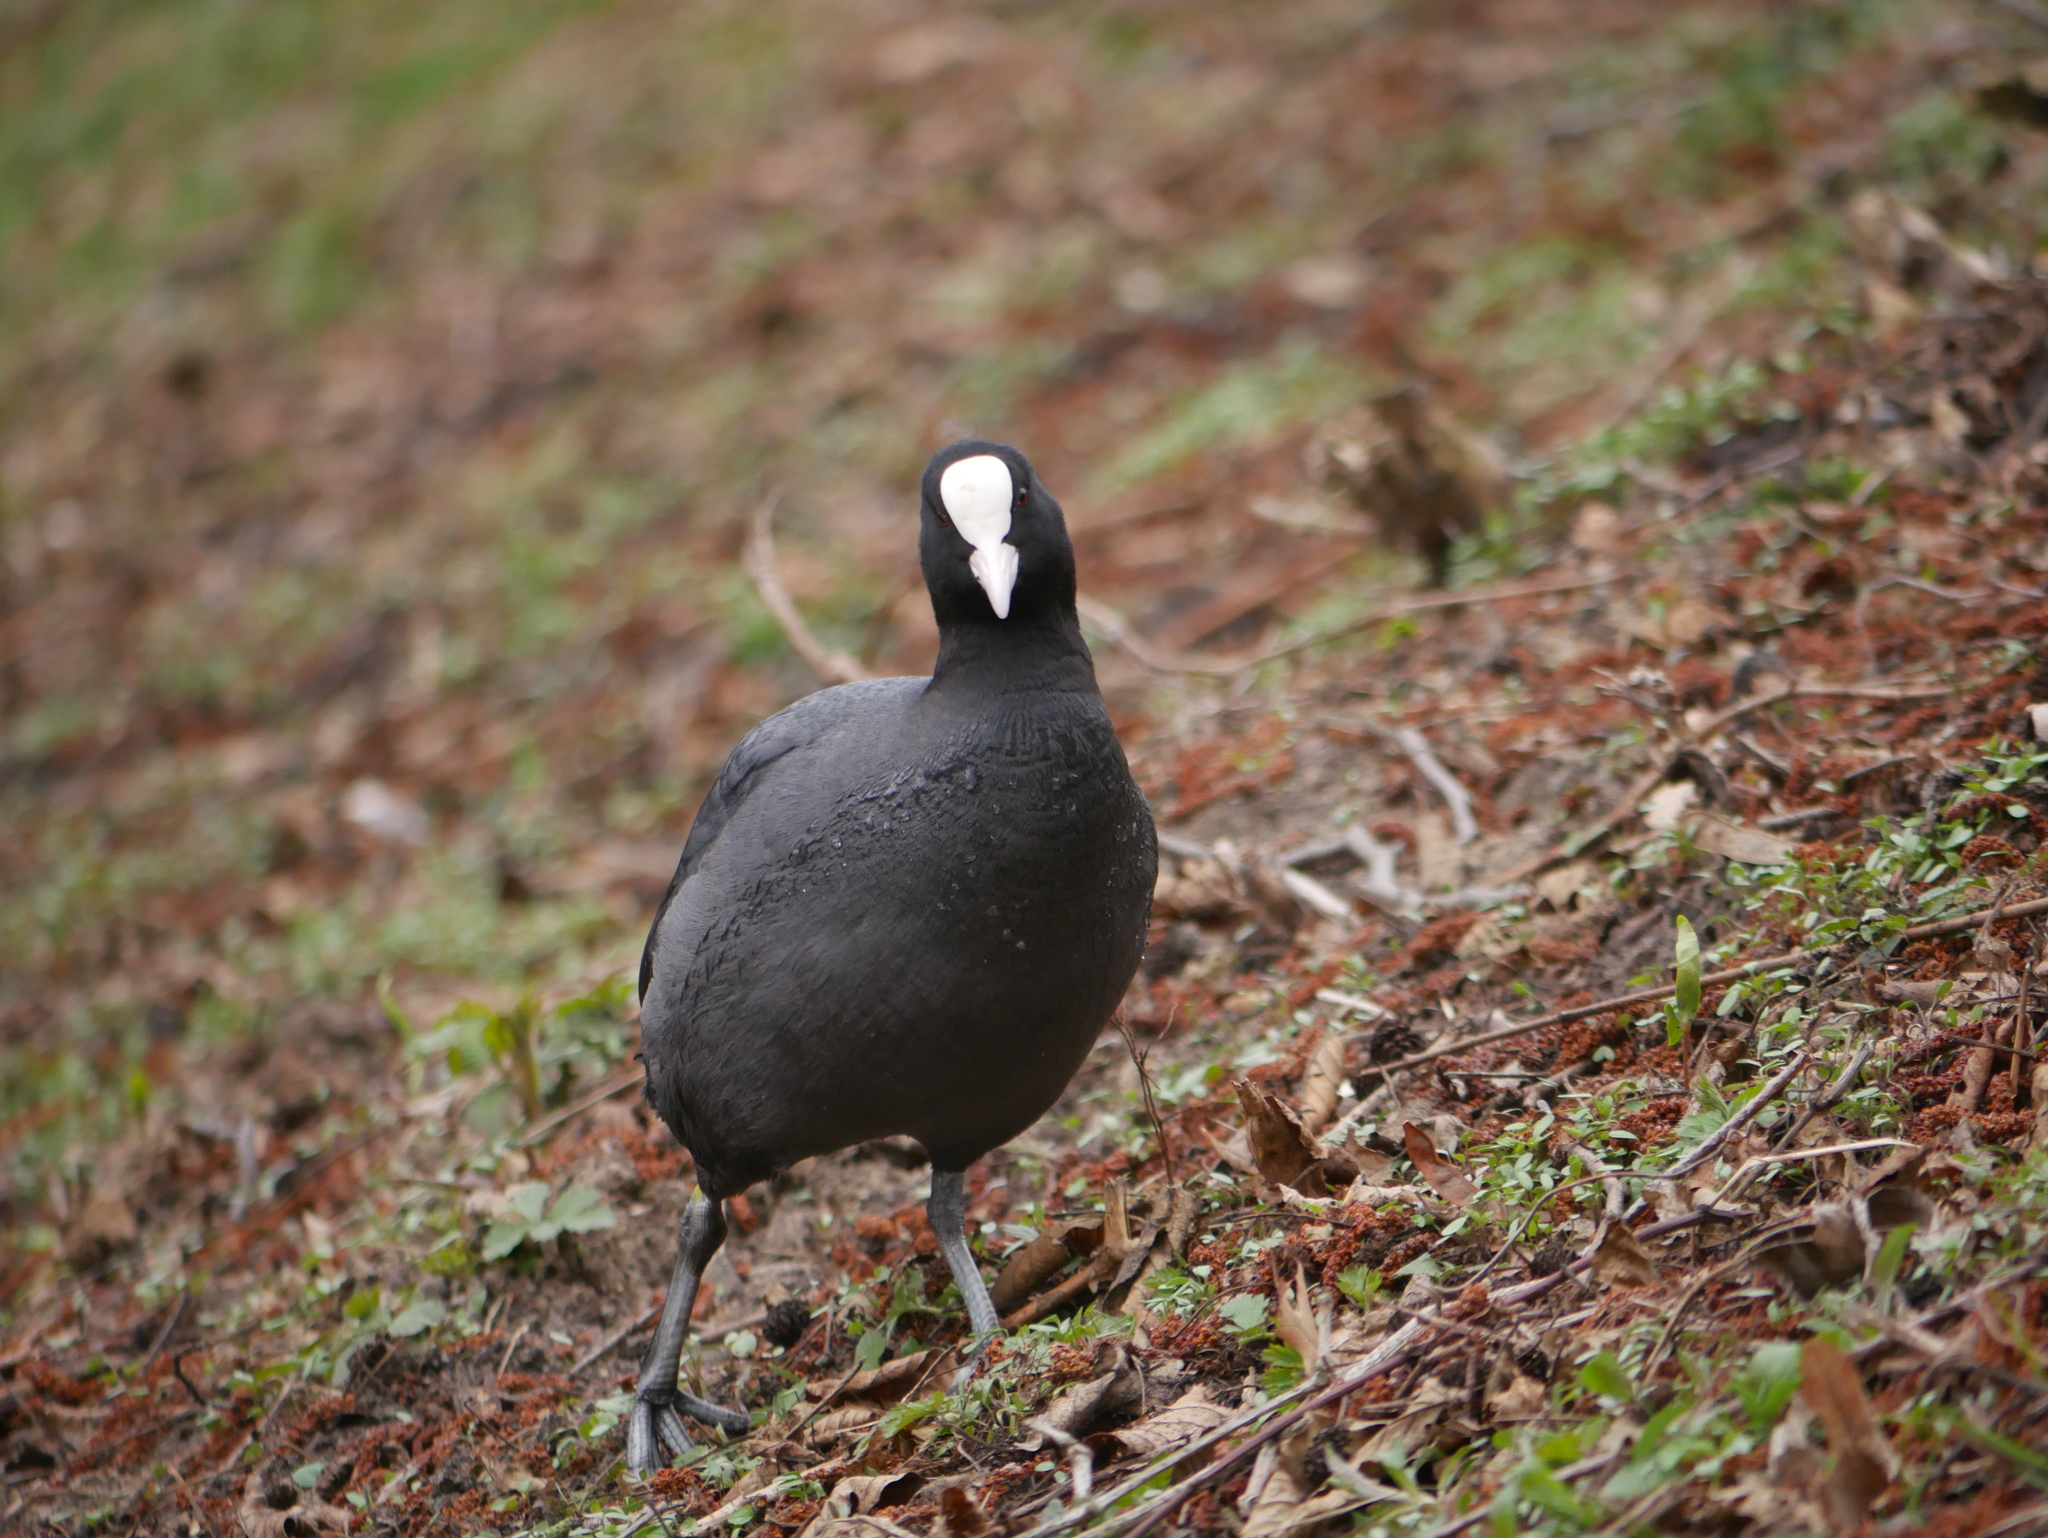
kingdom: Animalia
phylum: Chordata
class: Aves
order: Gruiformes
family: Rallidae
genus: Fulica
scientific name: Fulica atra
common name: Eurasian coot
